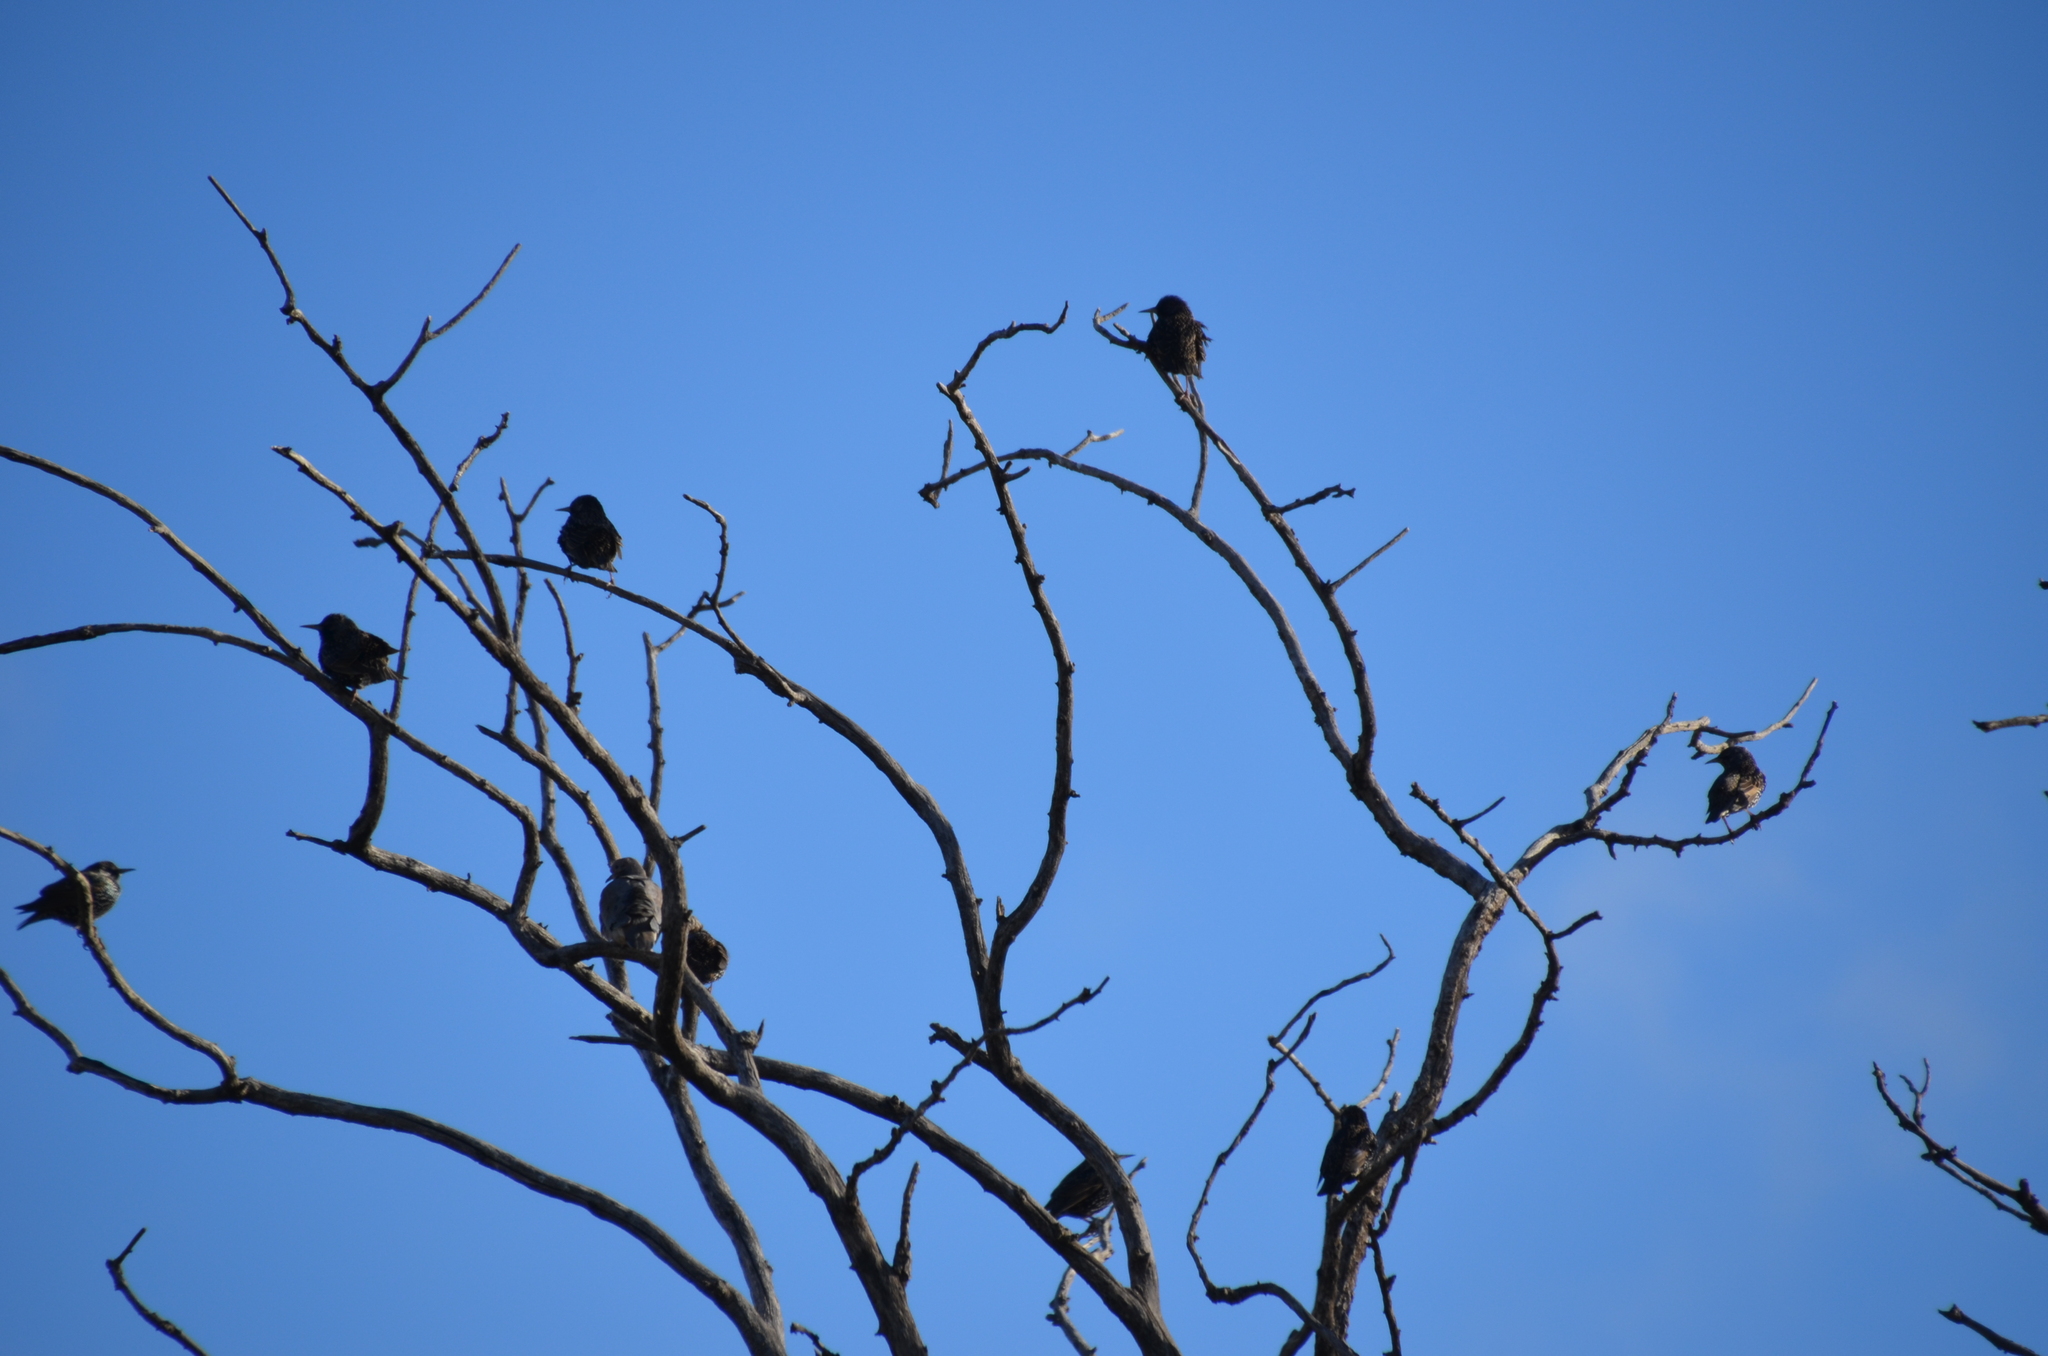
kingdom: Animalia
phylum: Chordata
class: Aves
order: Passeriformes
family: Sturnidae
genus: Sturnus
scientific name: Sturnus vulgaris
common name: Common starling
